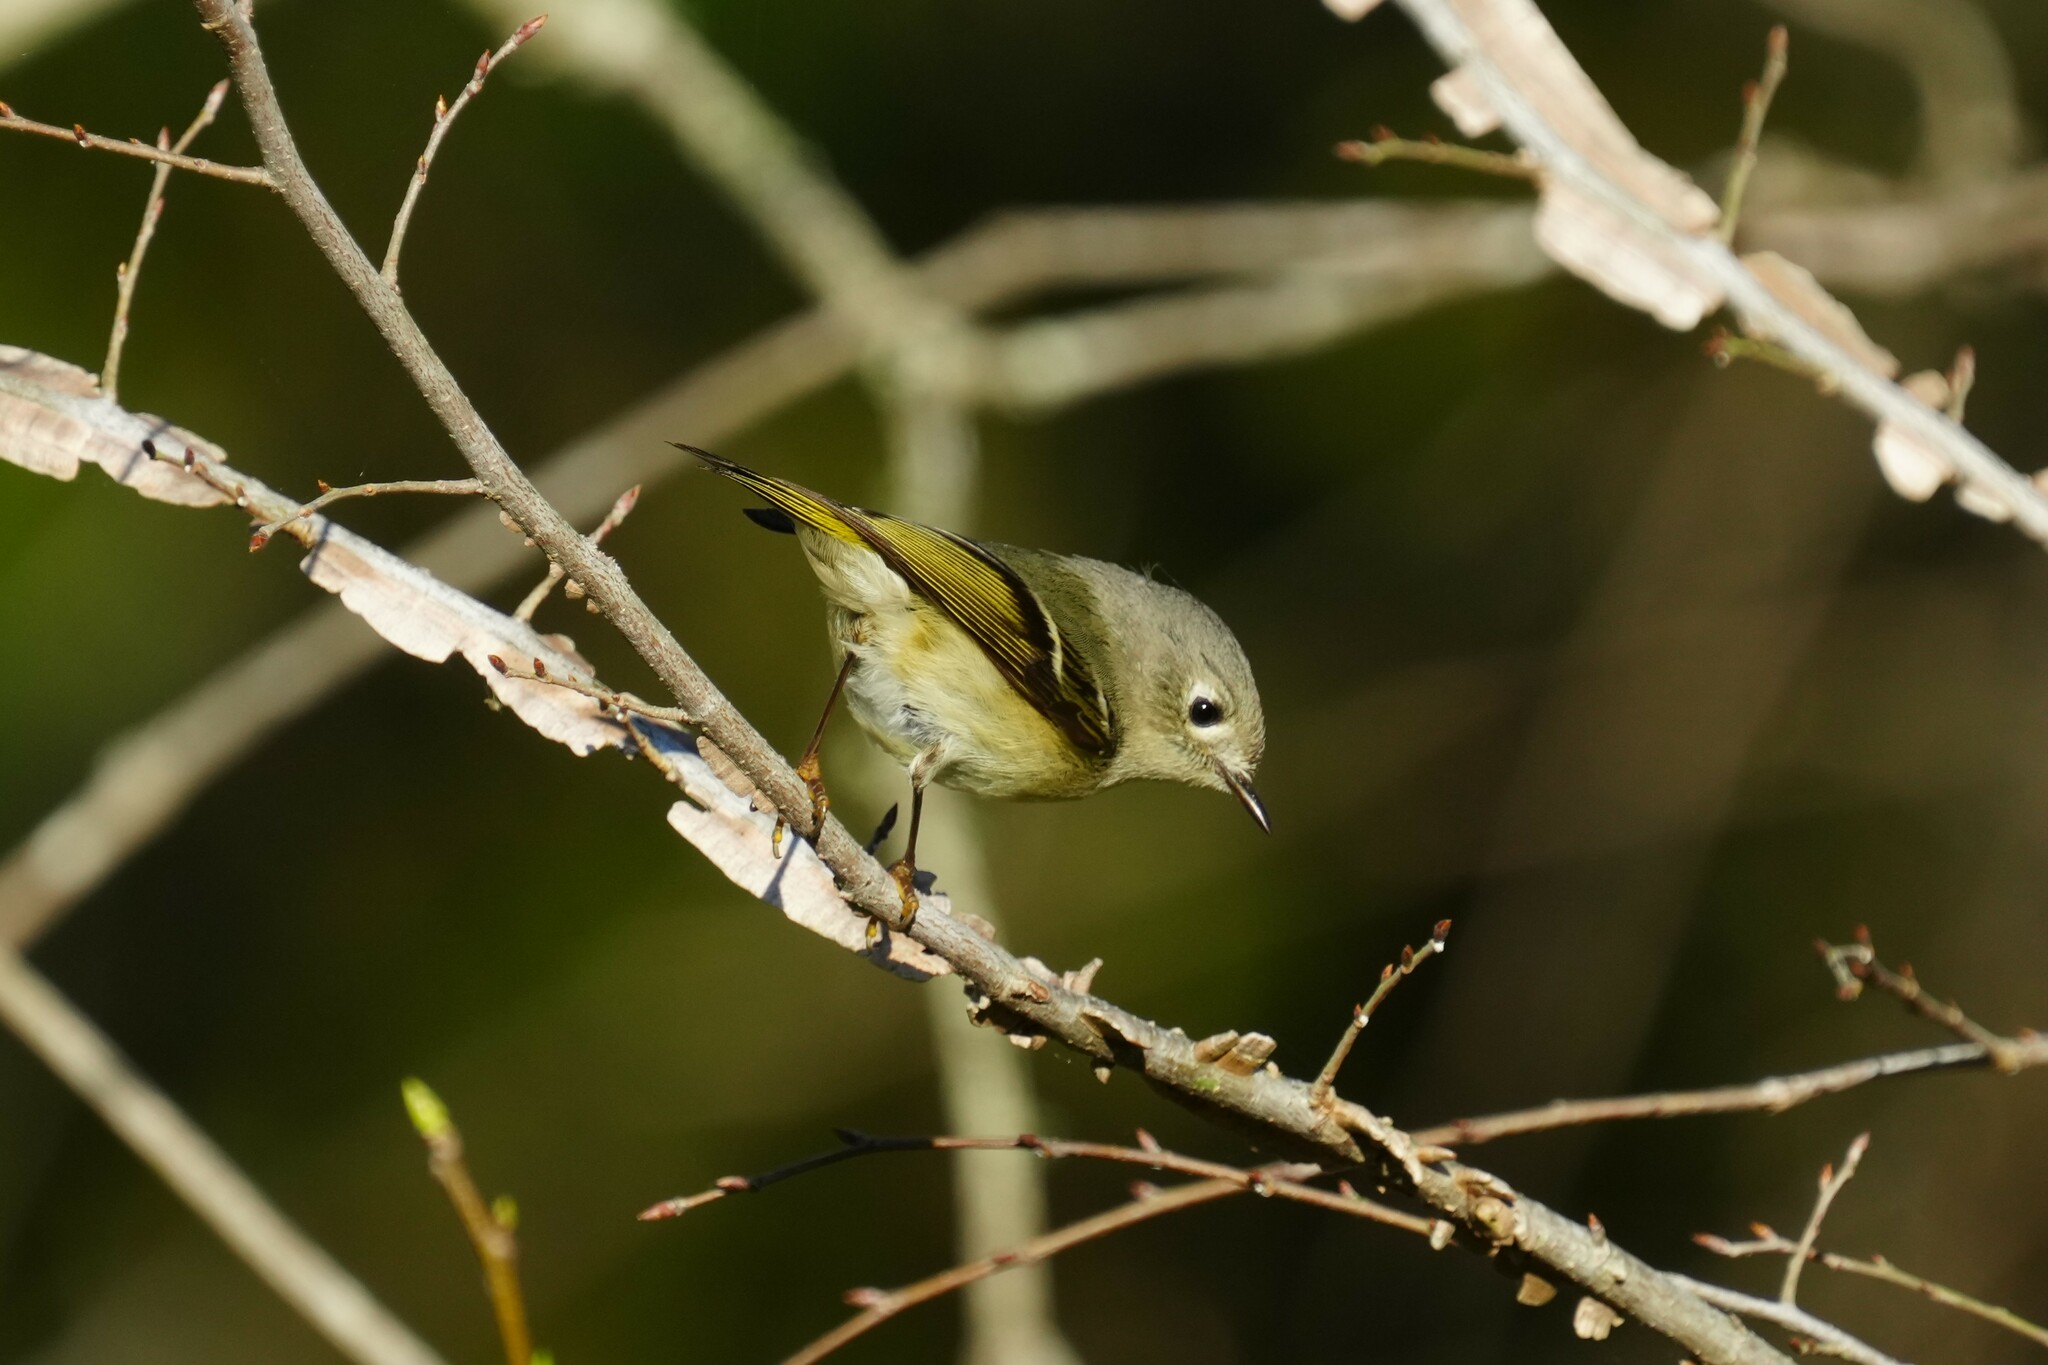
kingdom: Animalia
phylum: Chordata
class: Aves
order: Passeriformes
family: Regulidae
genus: Regulus
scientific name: Regulus calendula
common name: Ruby-crowned kinglet
